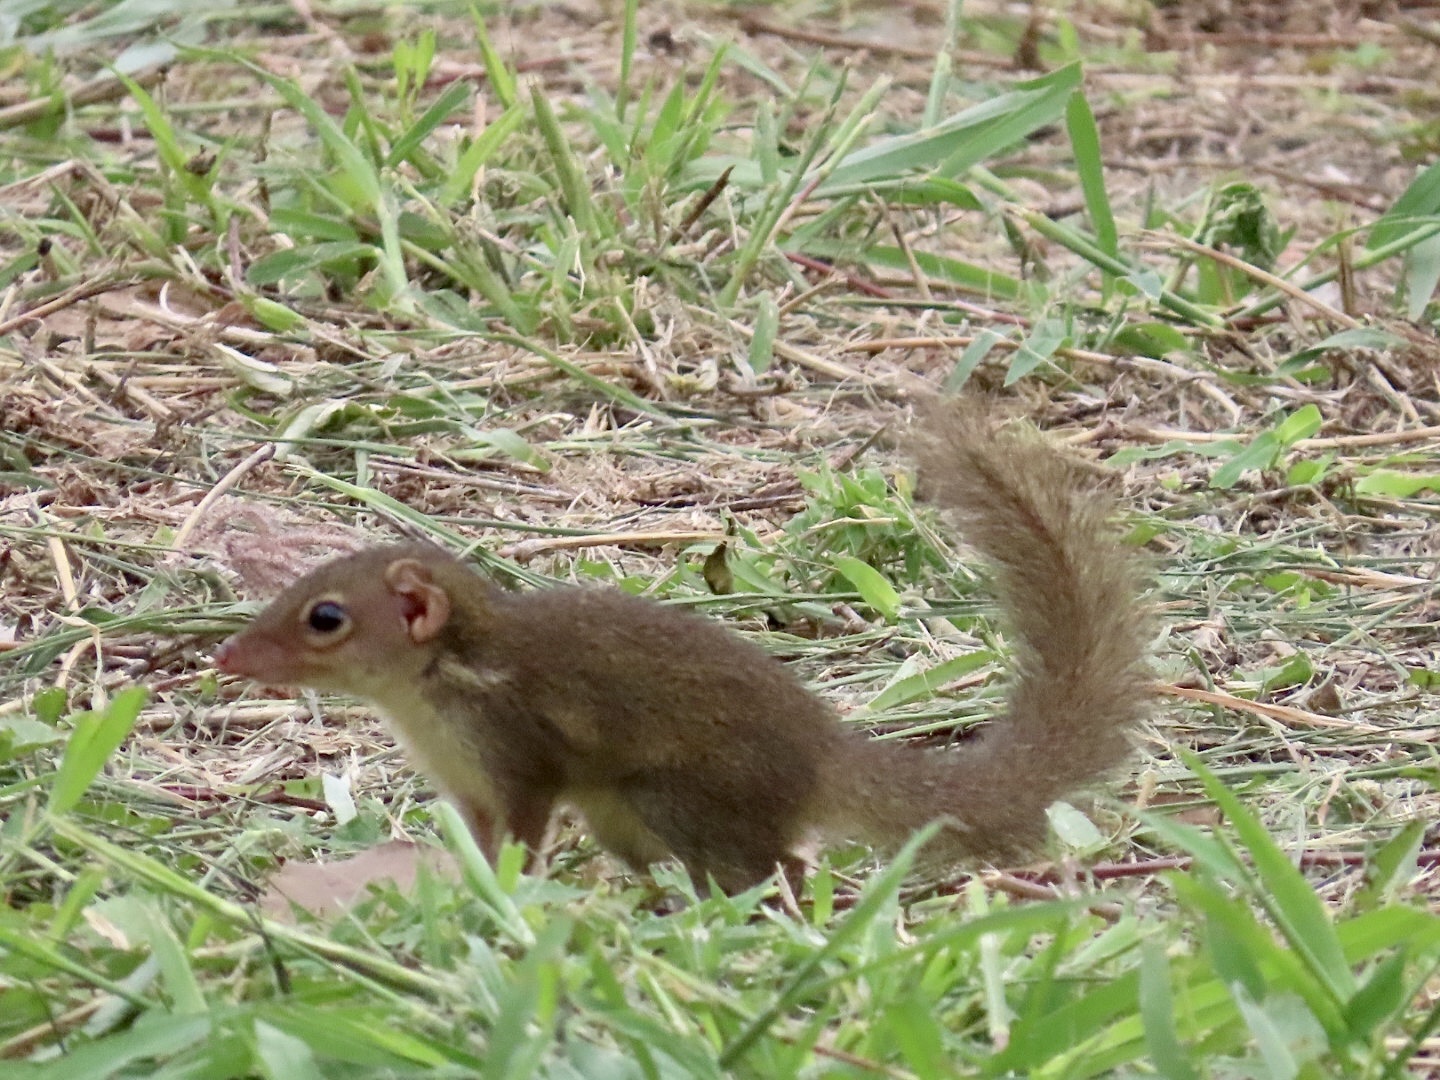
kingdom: Animalia
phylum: Chordata
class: Mammalia
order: Scandentia
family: Tupaiidae
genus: Tupaia
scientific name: Tupaia belangeri
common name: Northern treeshrew
